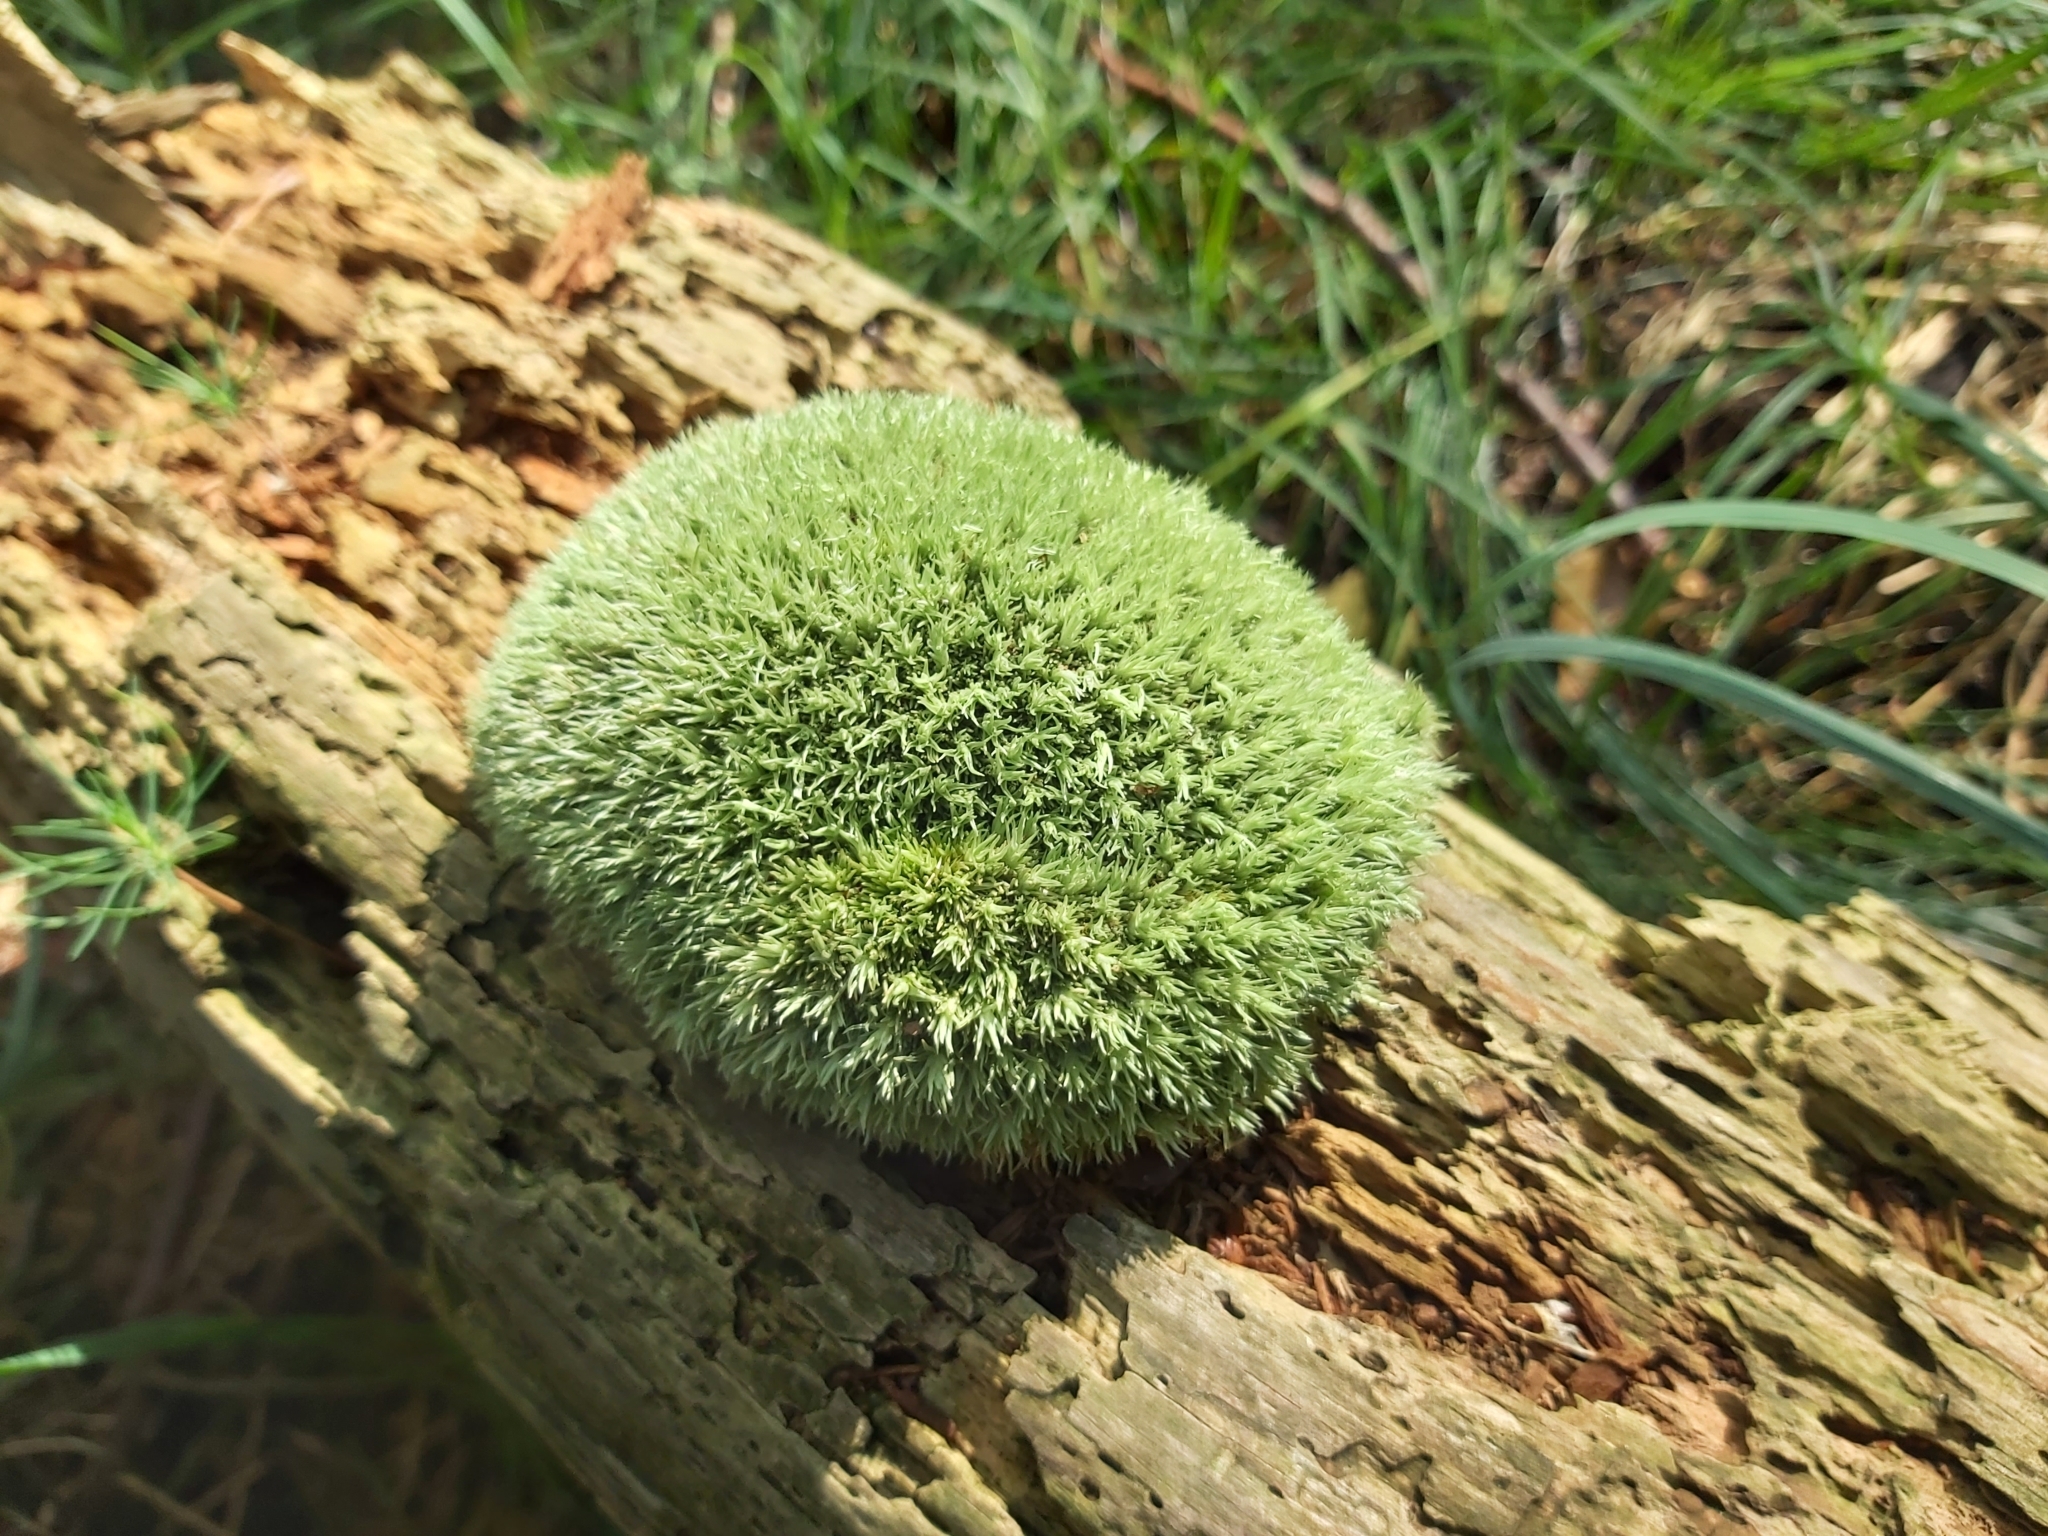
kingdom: Plantae
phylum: Bryophyta
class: Bryopsida
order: Dicranales
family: Leucobryaceae
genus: Leucobryum
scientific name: Leucobryum glaucum
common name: Large white-moss
